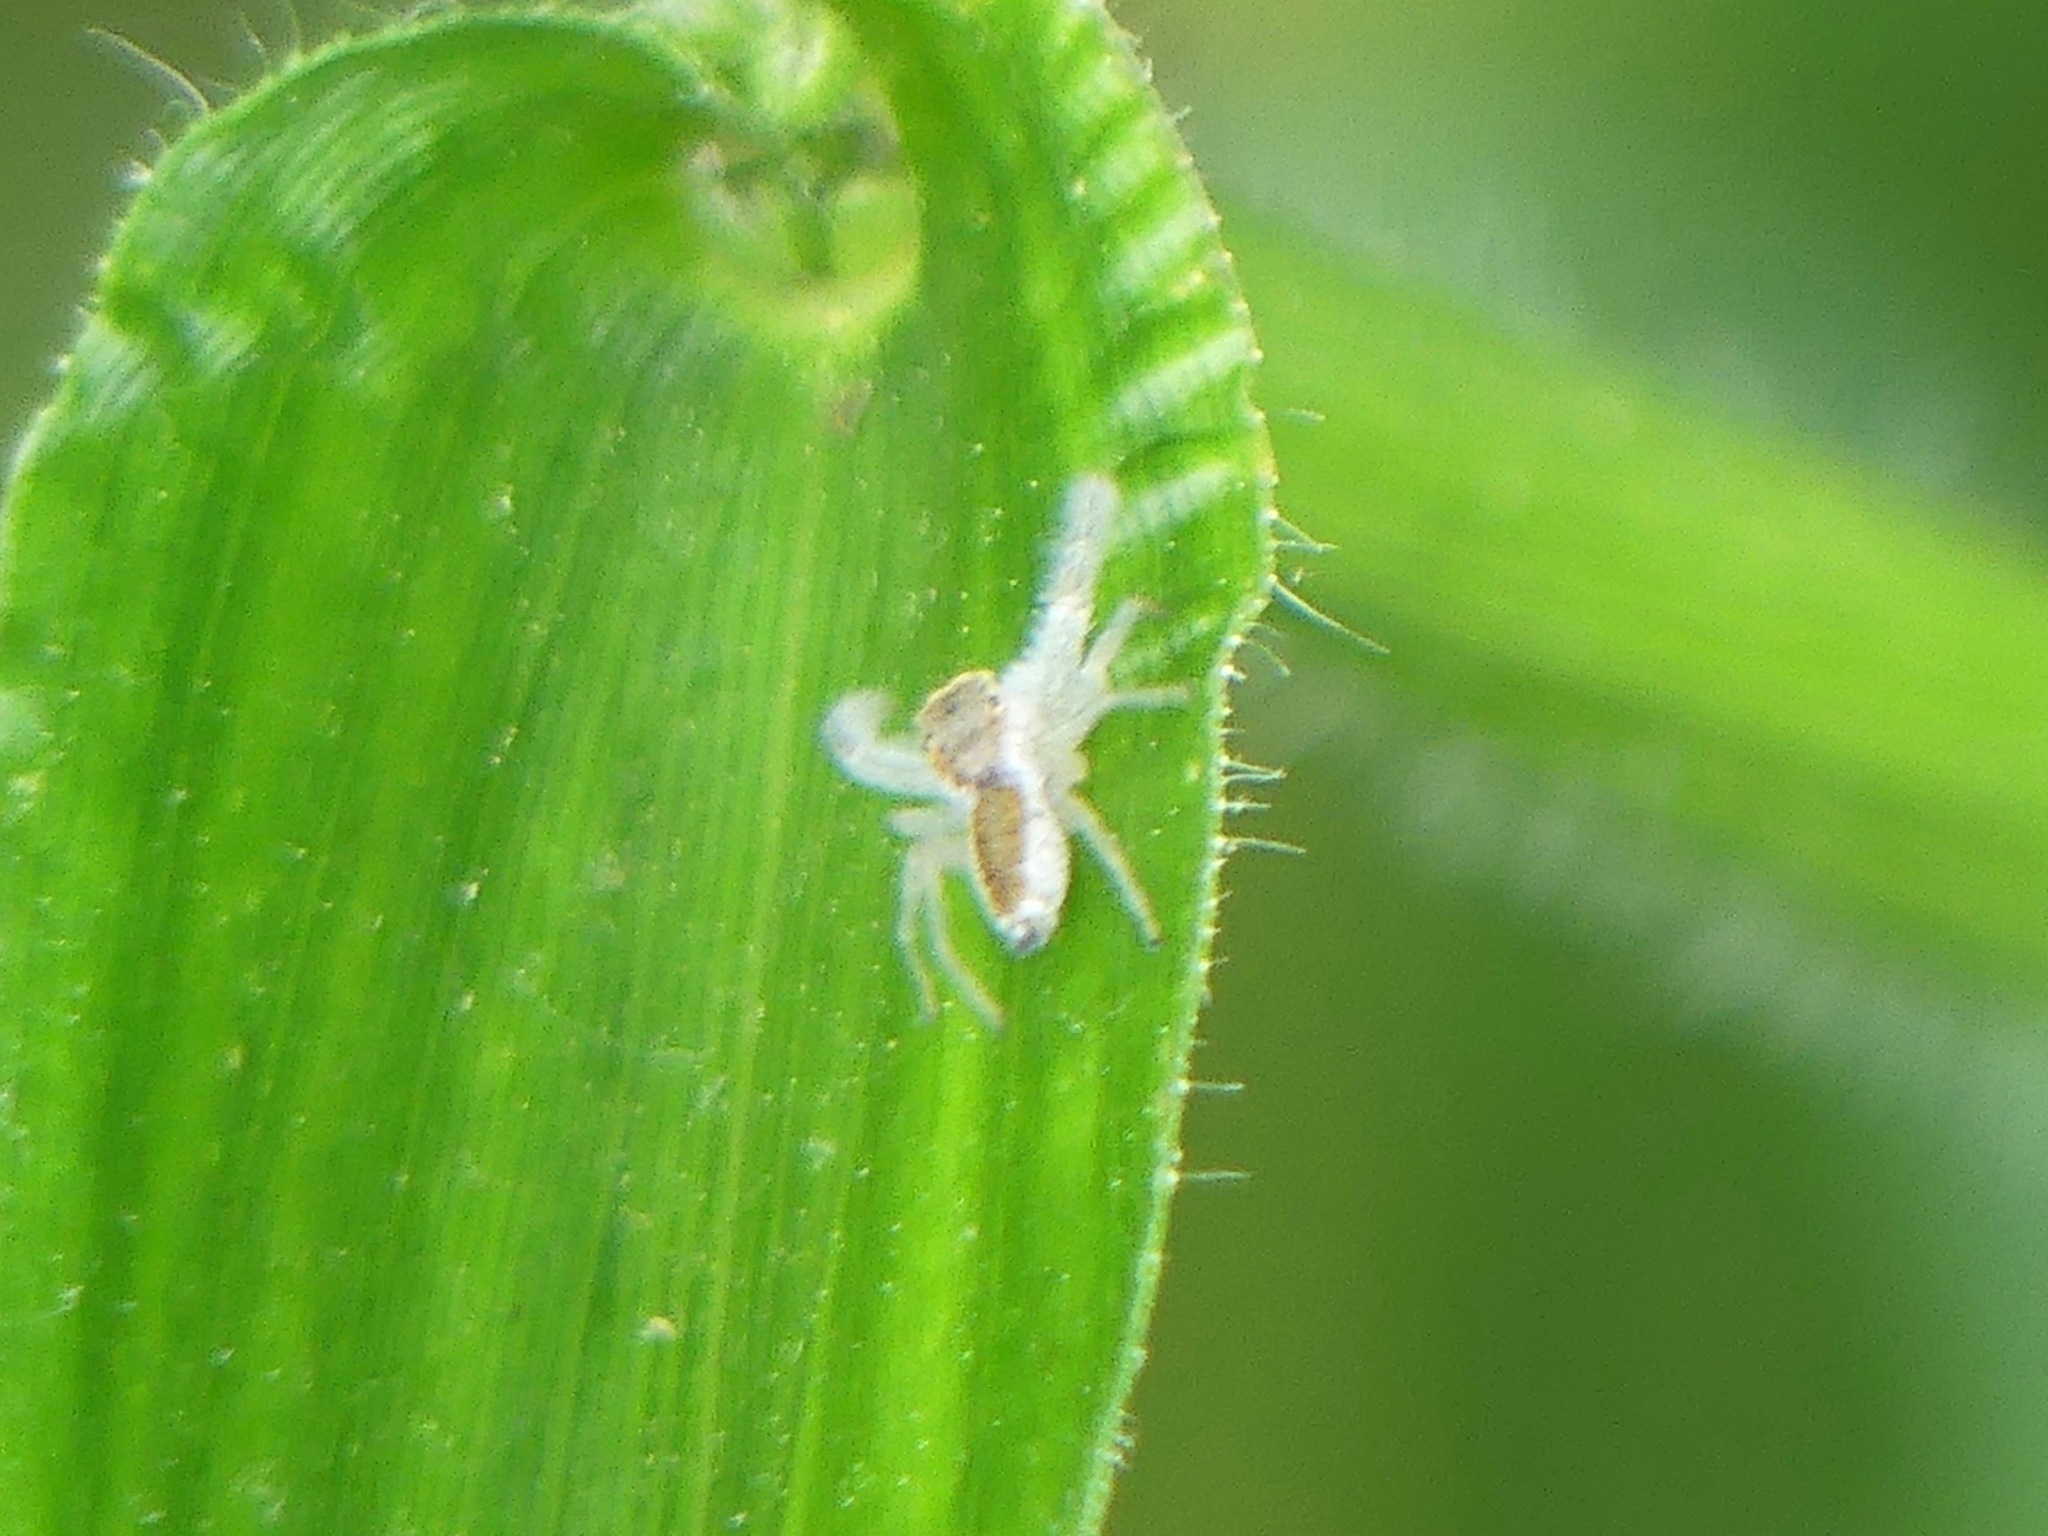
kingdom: Animalia
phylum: Arthropoda
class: Arachnida
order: Araneae
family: Salticidae
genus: Hentzia
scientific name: Hentzia mitrata
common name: White-jawed jumping spider
